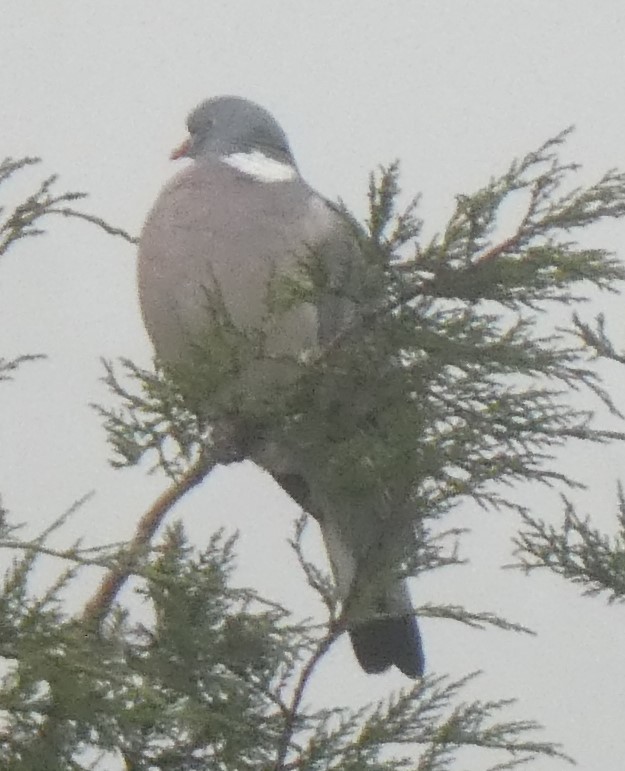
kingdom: Animalia
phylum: Chordata
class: Aves
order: Columbiformes
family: Columbidae
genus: Columba
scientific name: Columba palumbus
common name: Common wood pigeon
